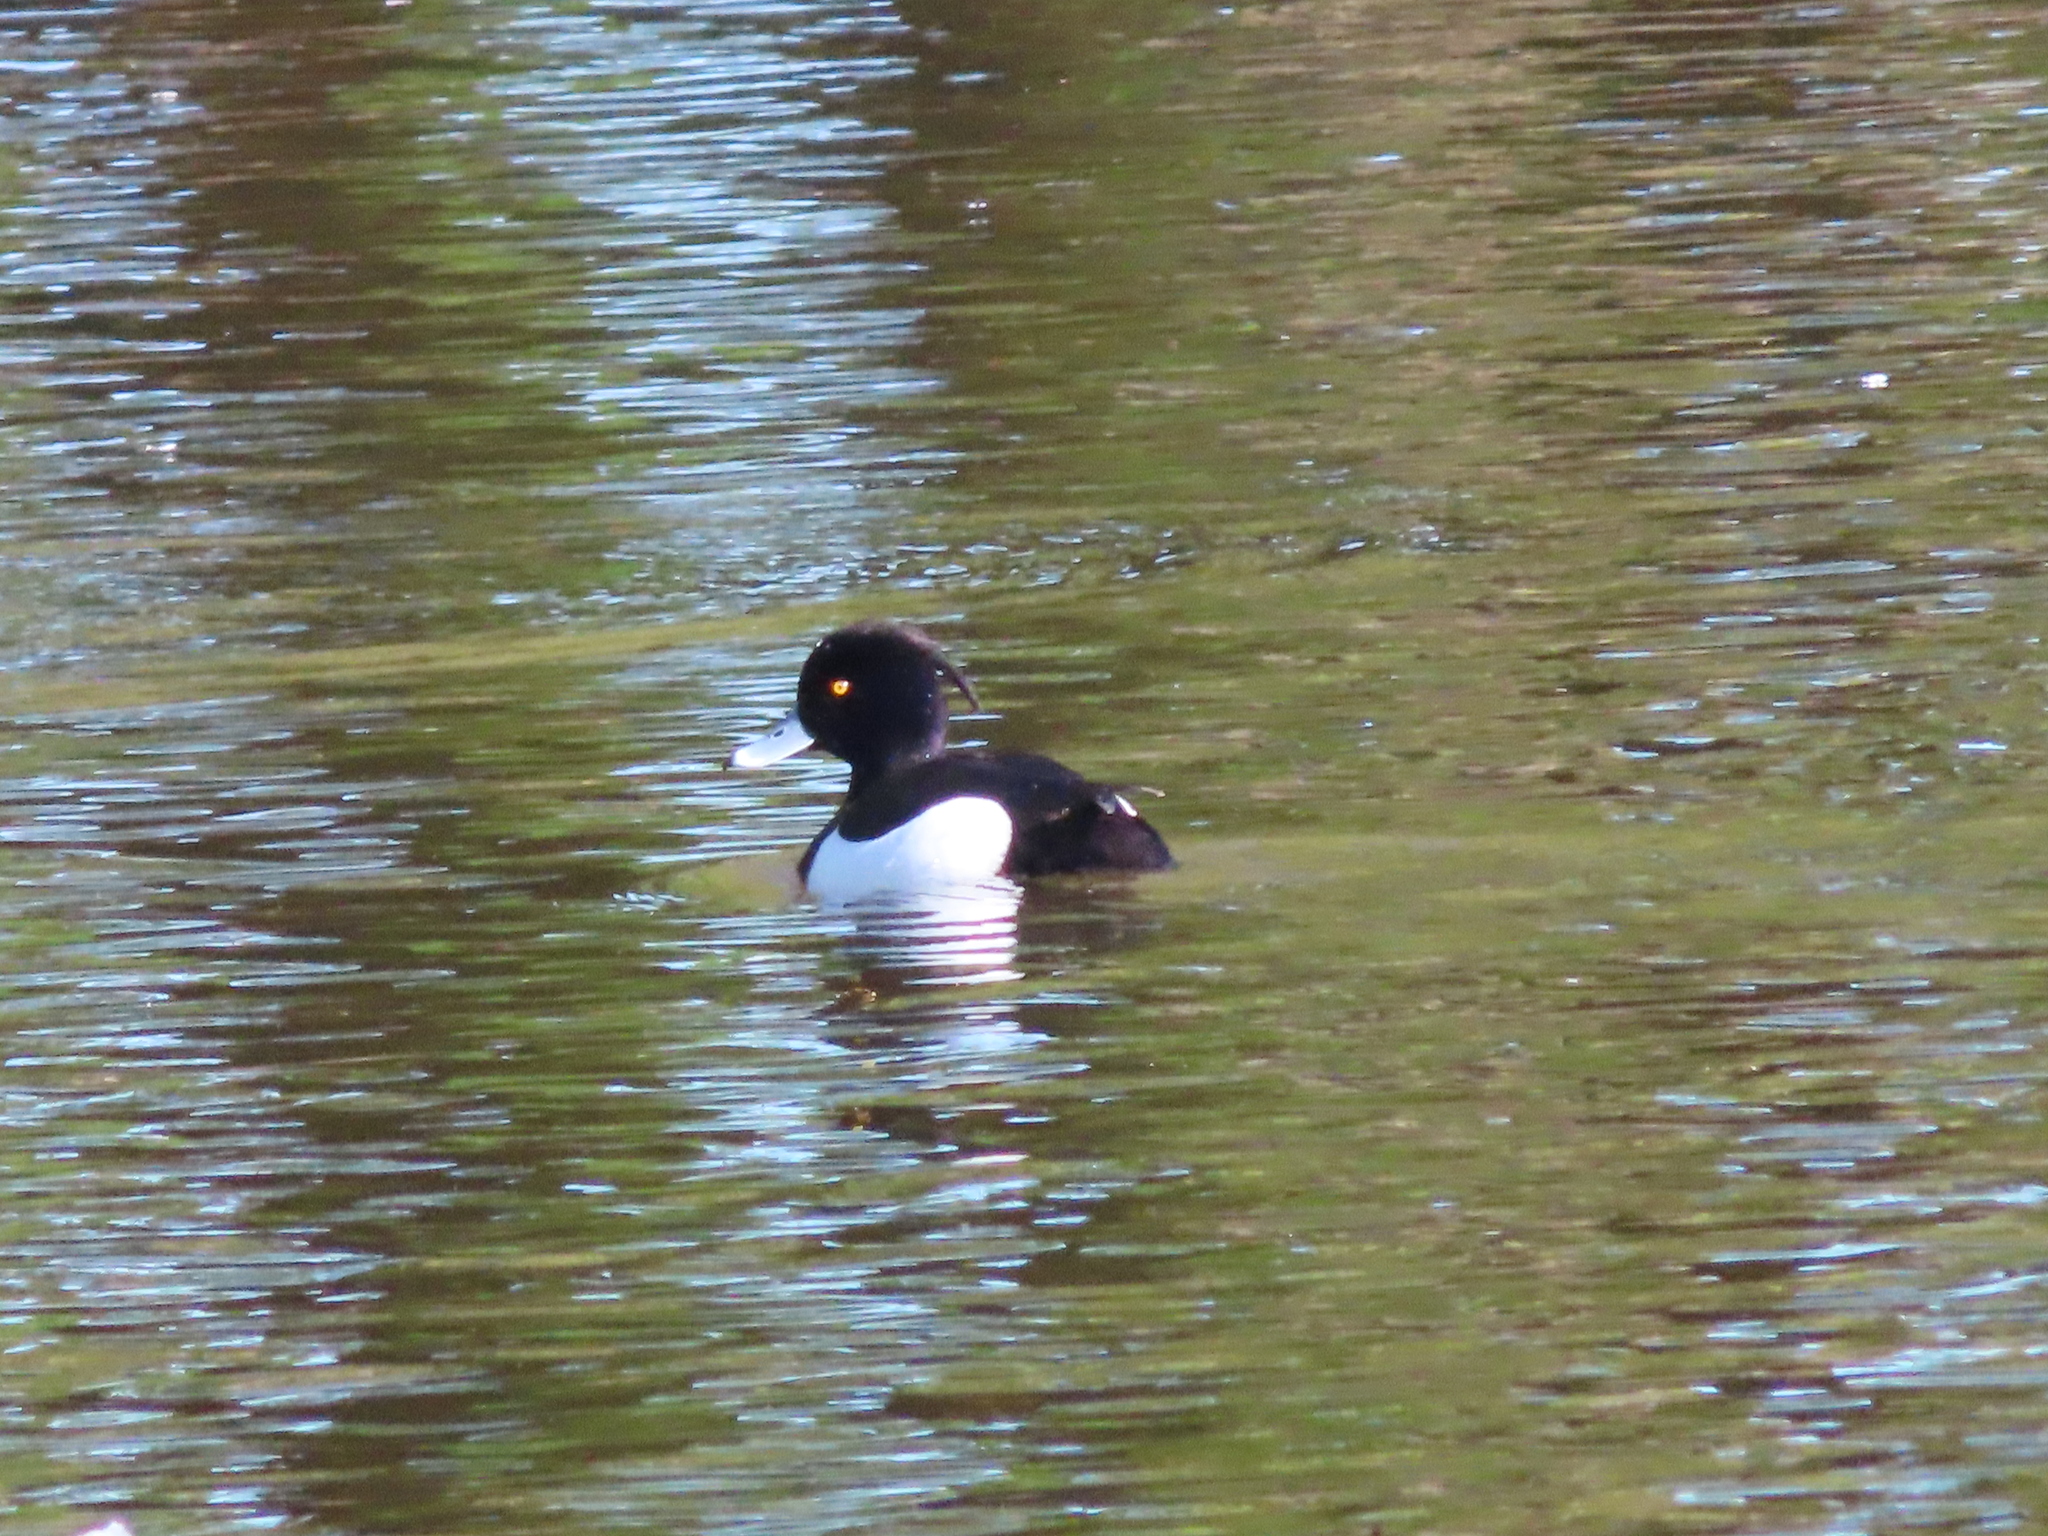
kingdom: Animalia
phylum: Chordata
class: Aves
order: Anseriformes
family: Anatidae
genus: Aythya
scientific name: Aythya fuligula
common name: Tufted duck
